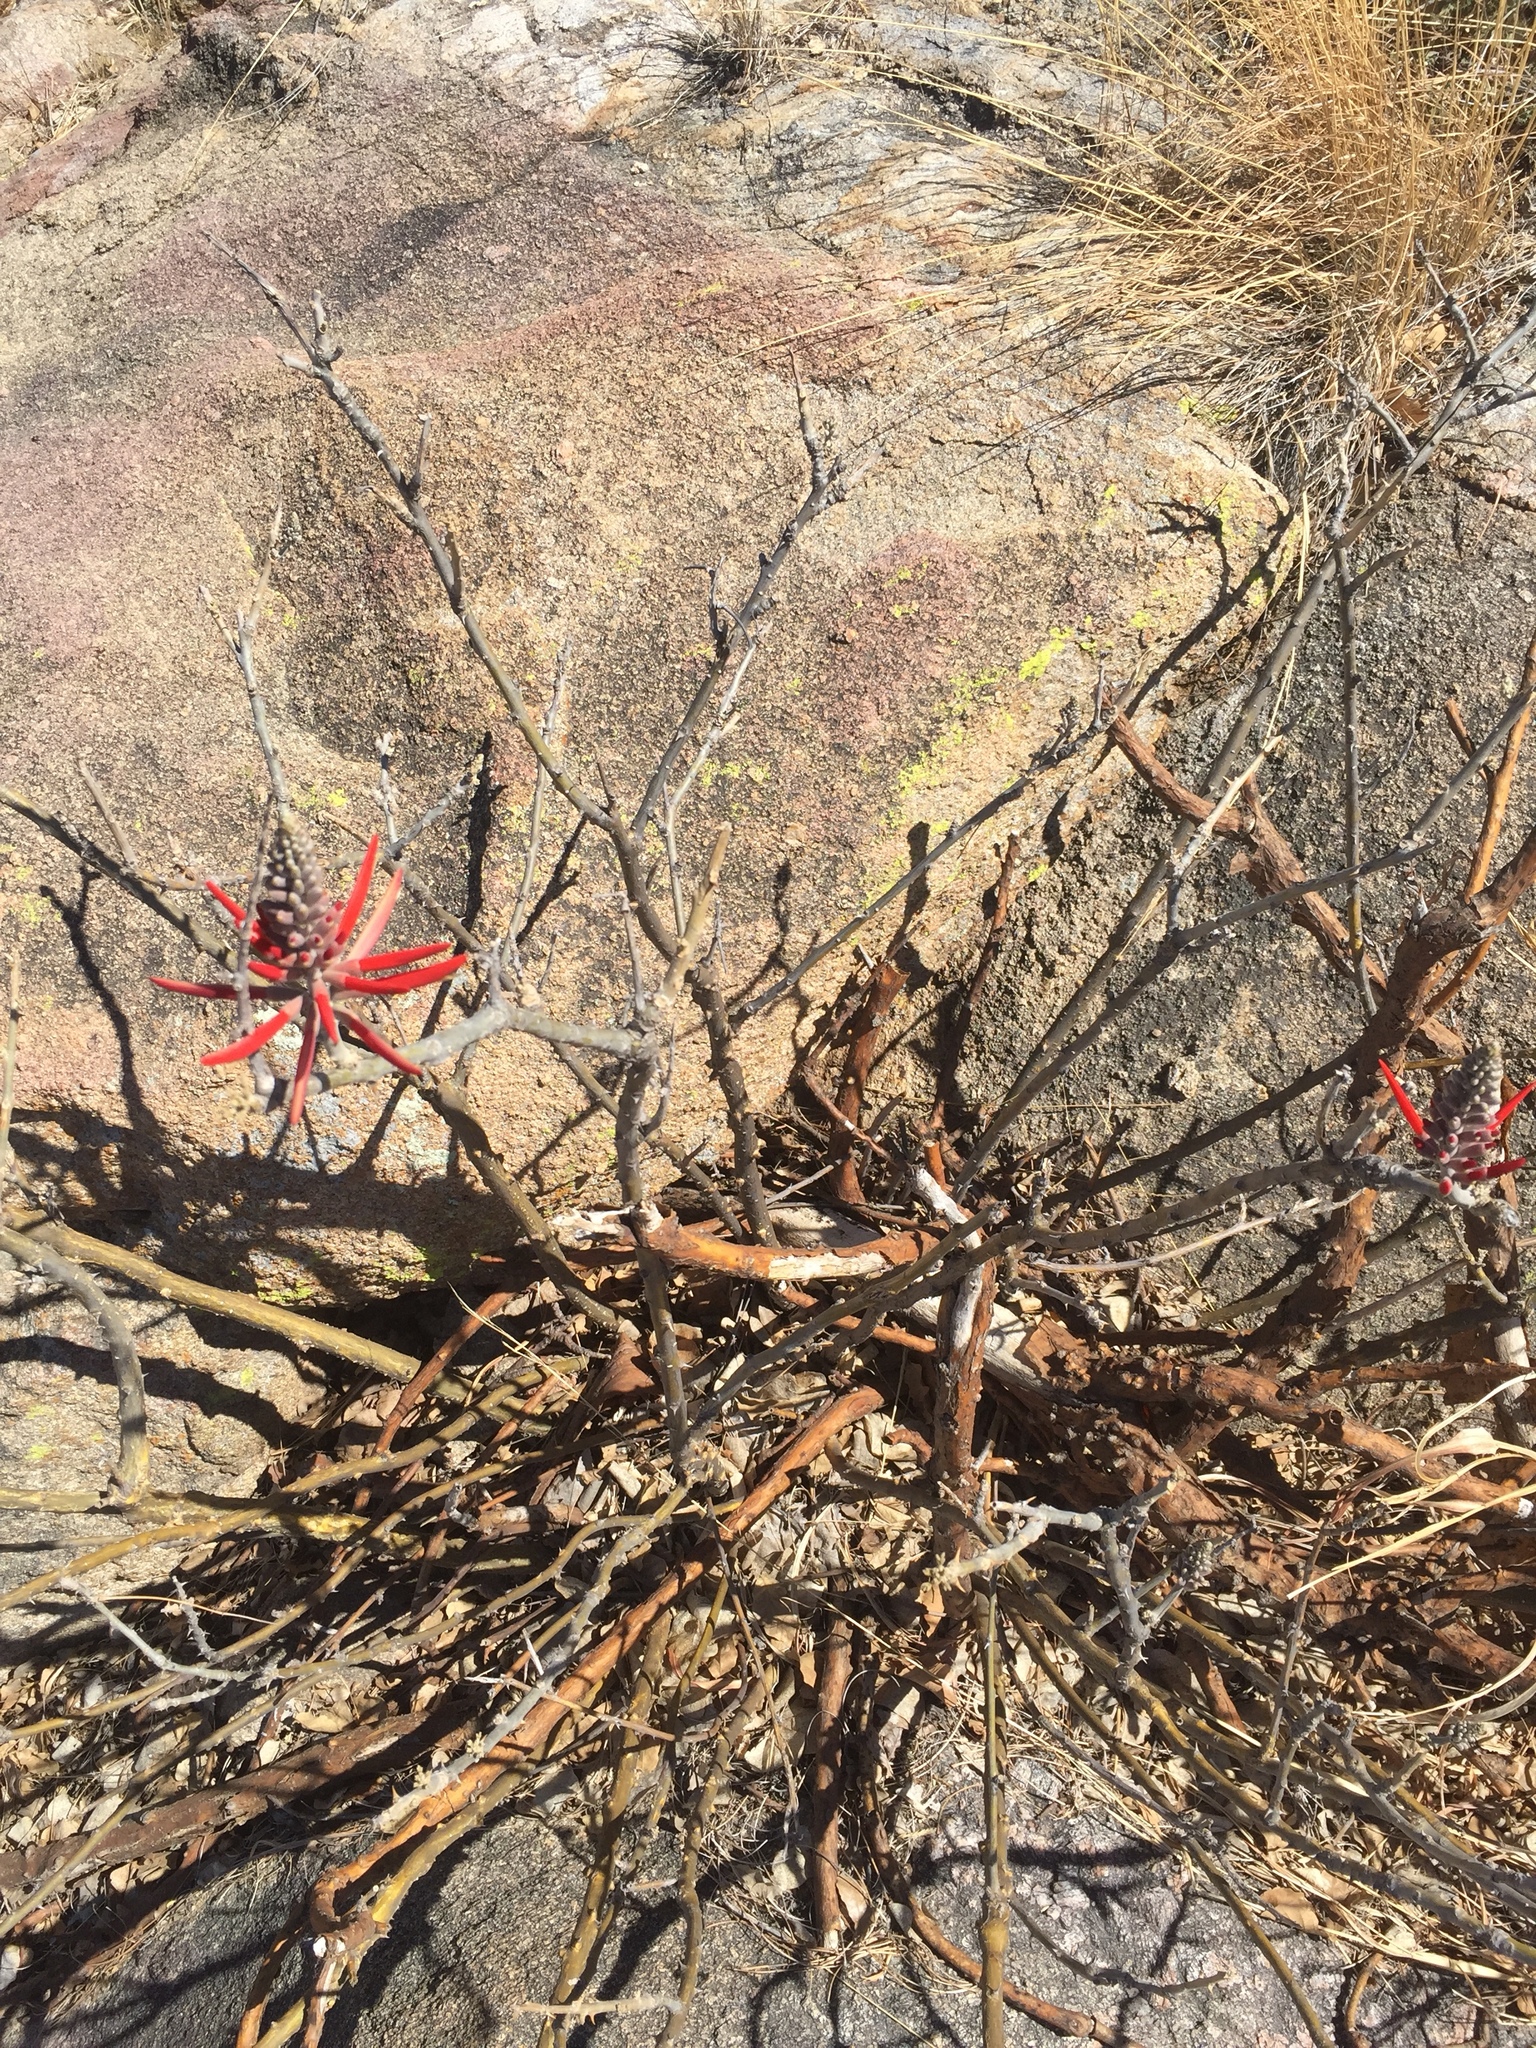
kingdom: Plantae
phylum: Tracheophyta
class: Magnoliopsida
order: Fabales
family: Fabaceae
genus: Erythrina
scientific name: Erythrina flabelliformis
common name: Chilicote
